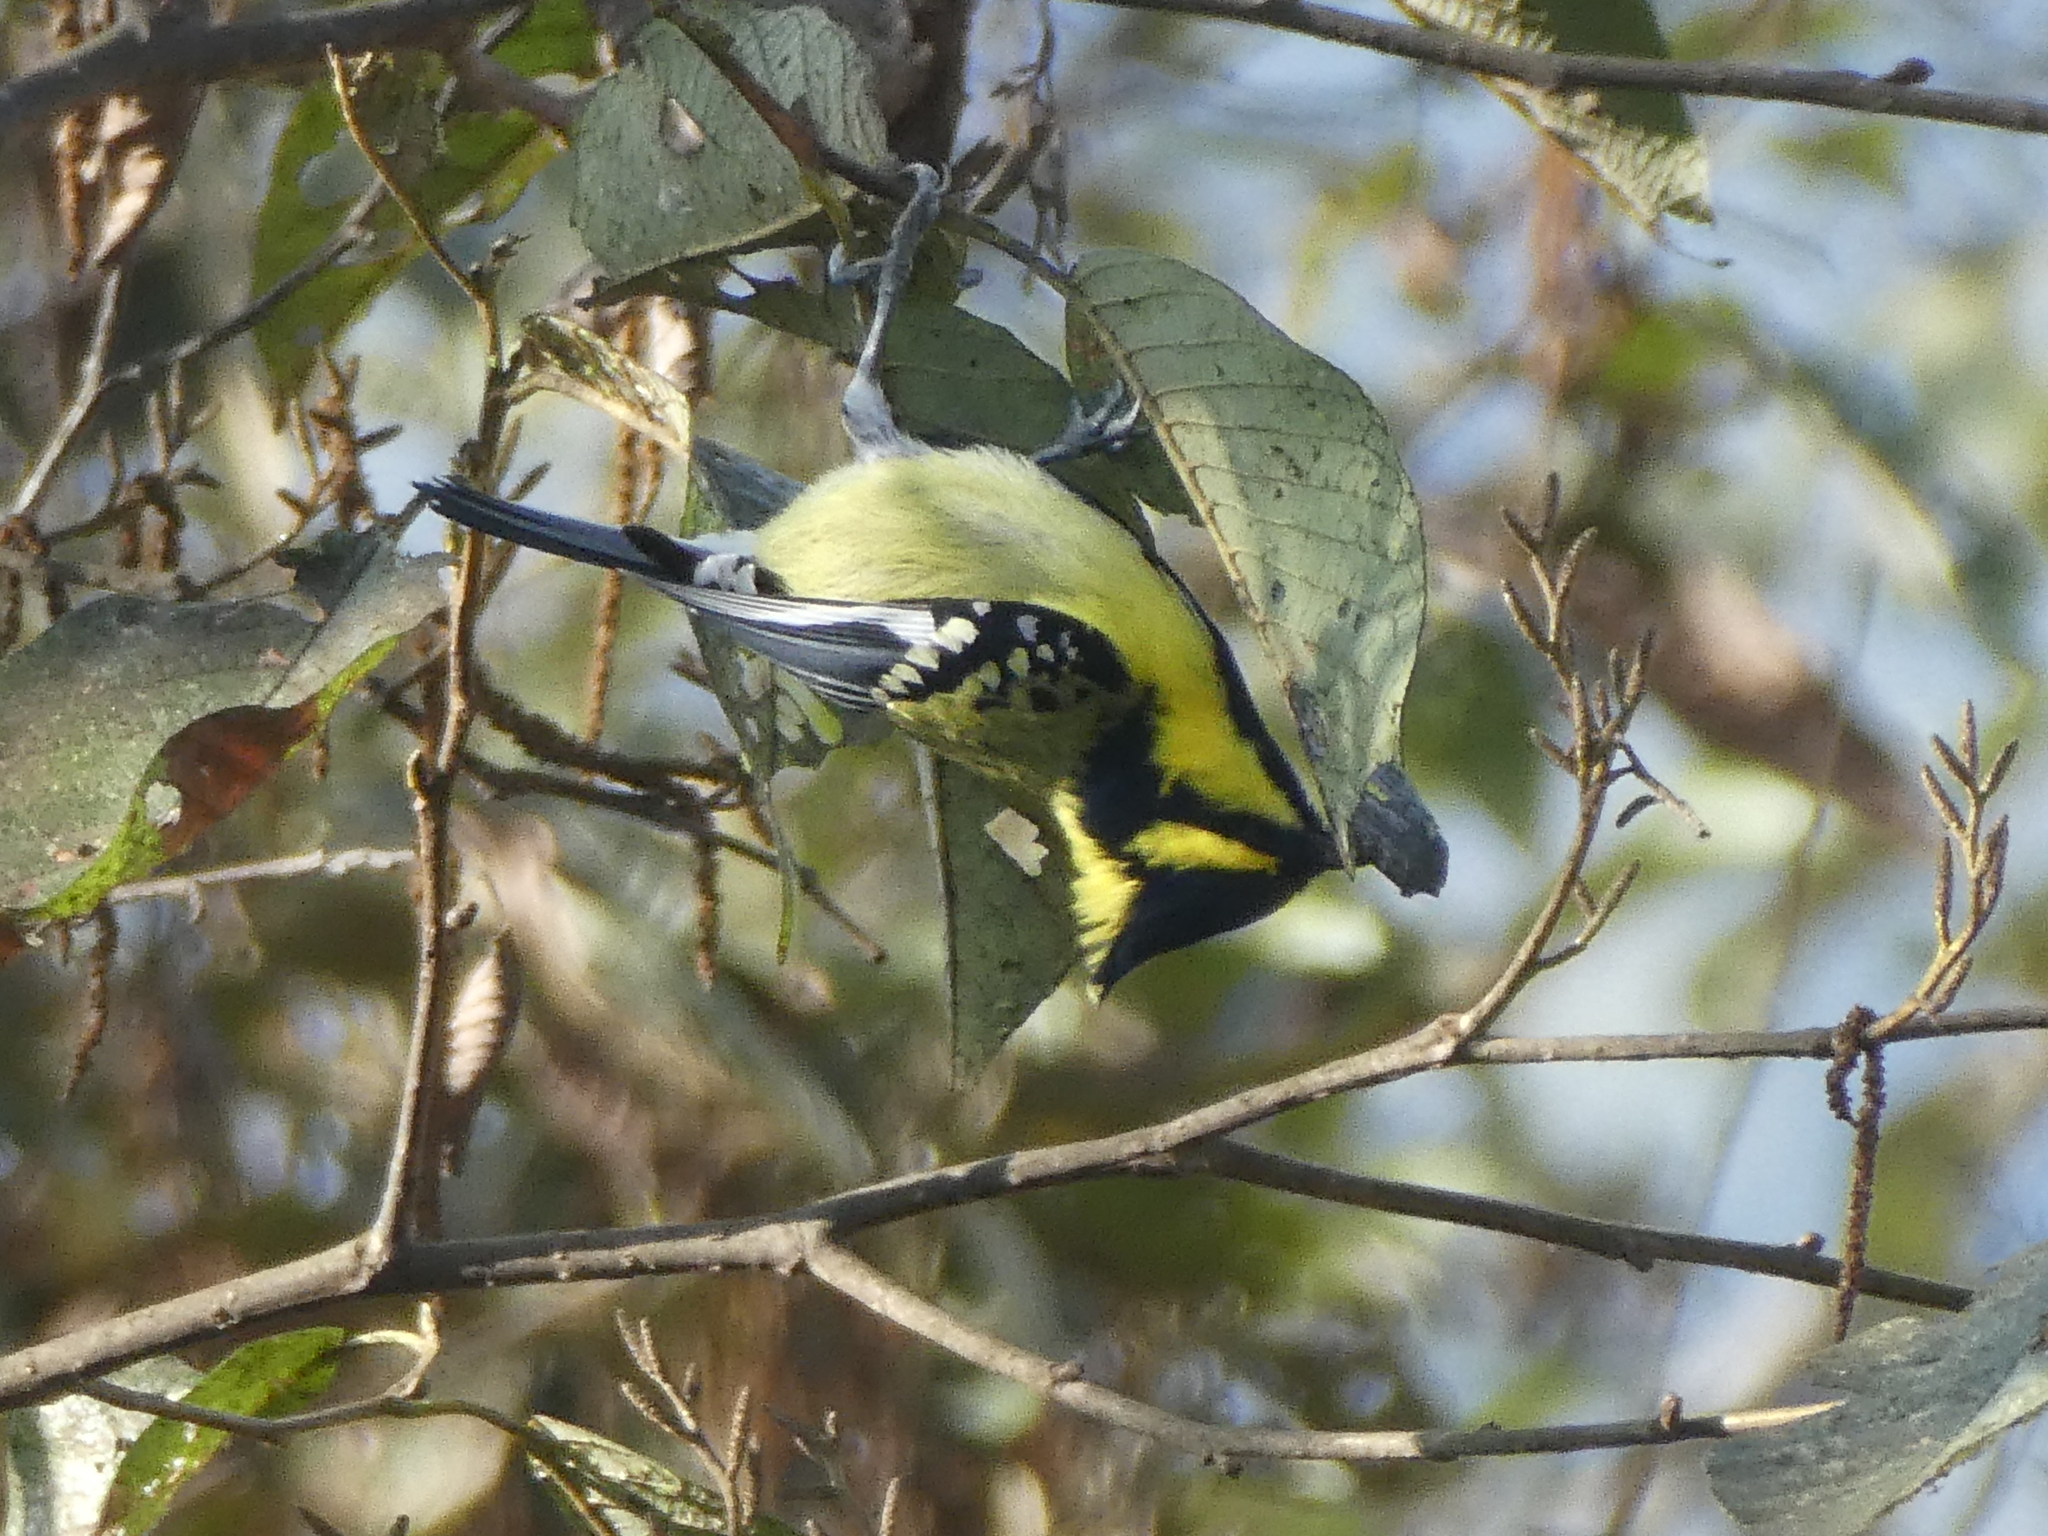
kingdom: Animalia
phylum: Chordata
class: Aves
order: Passeriformes
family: Paridae
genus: Parus
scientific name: Parus xanthogenys
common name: Black-lored tit
